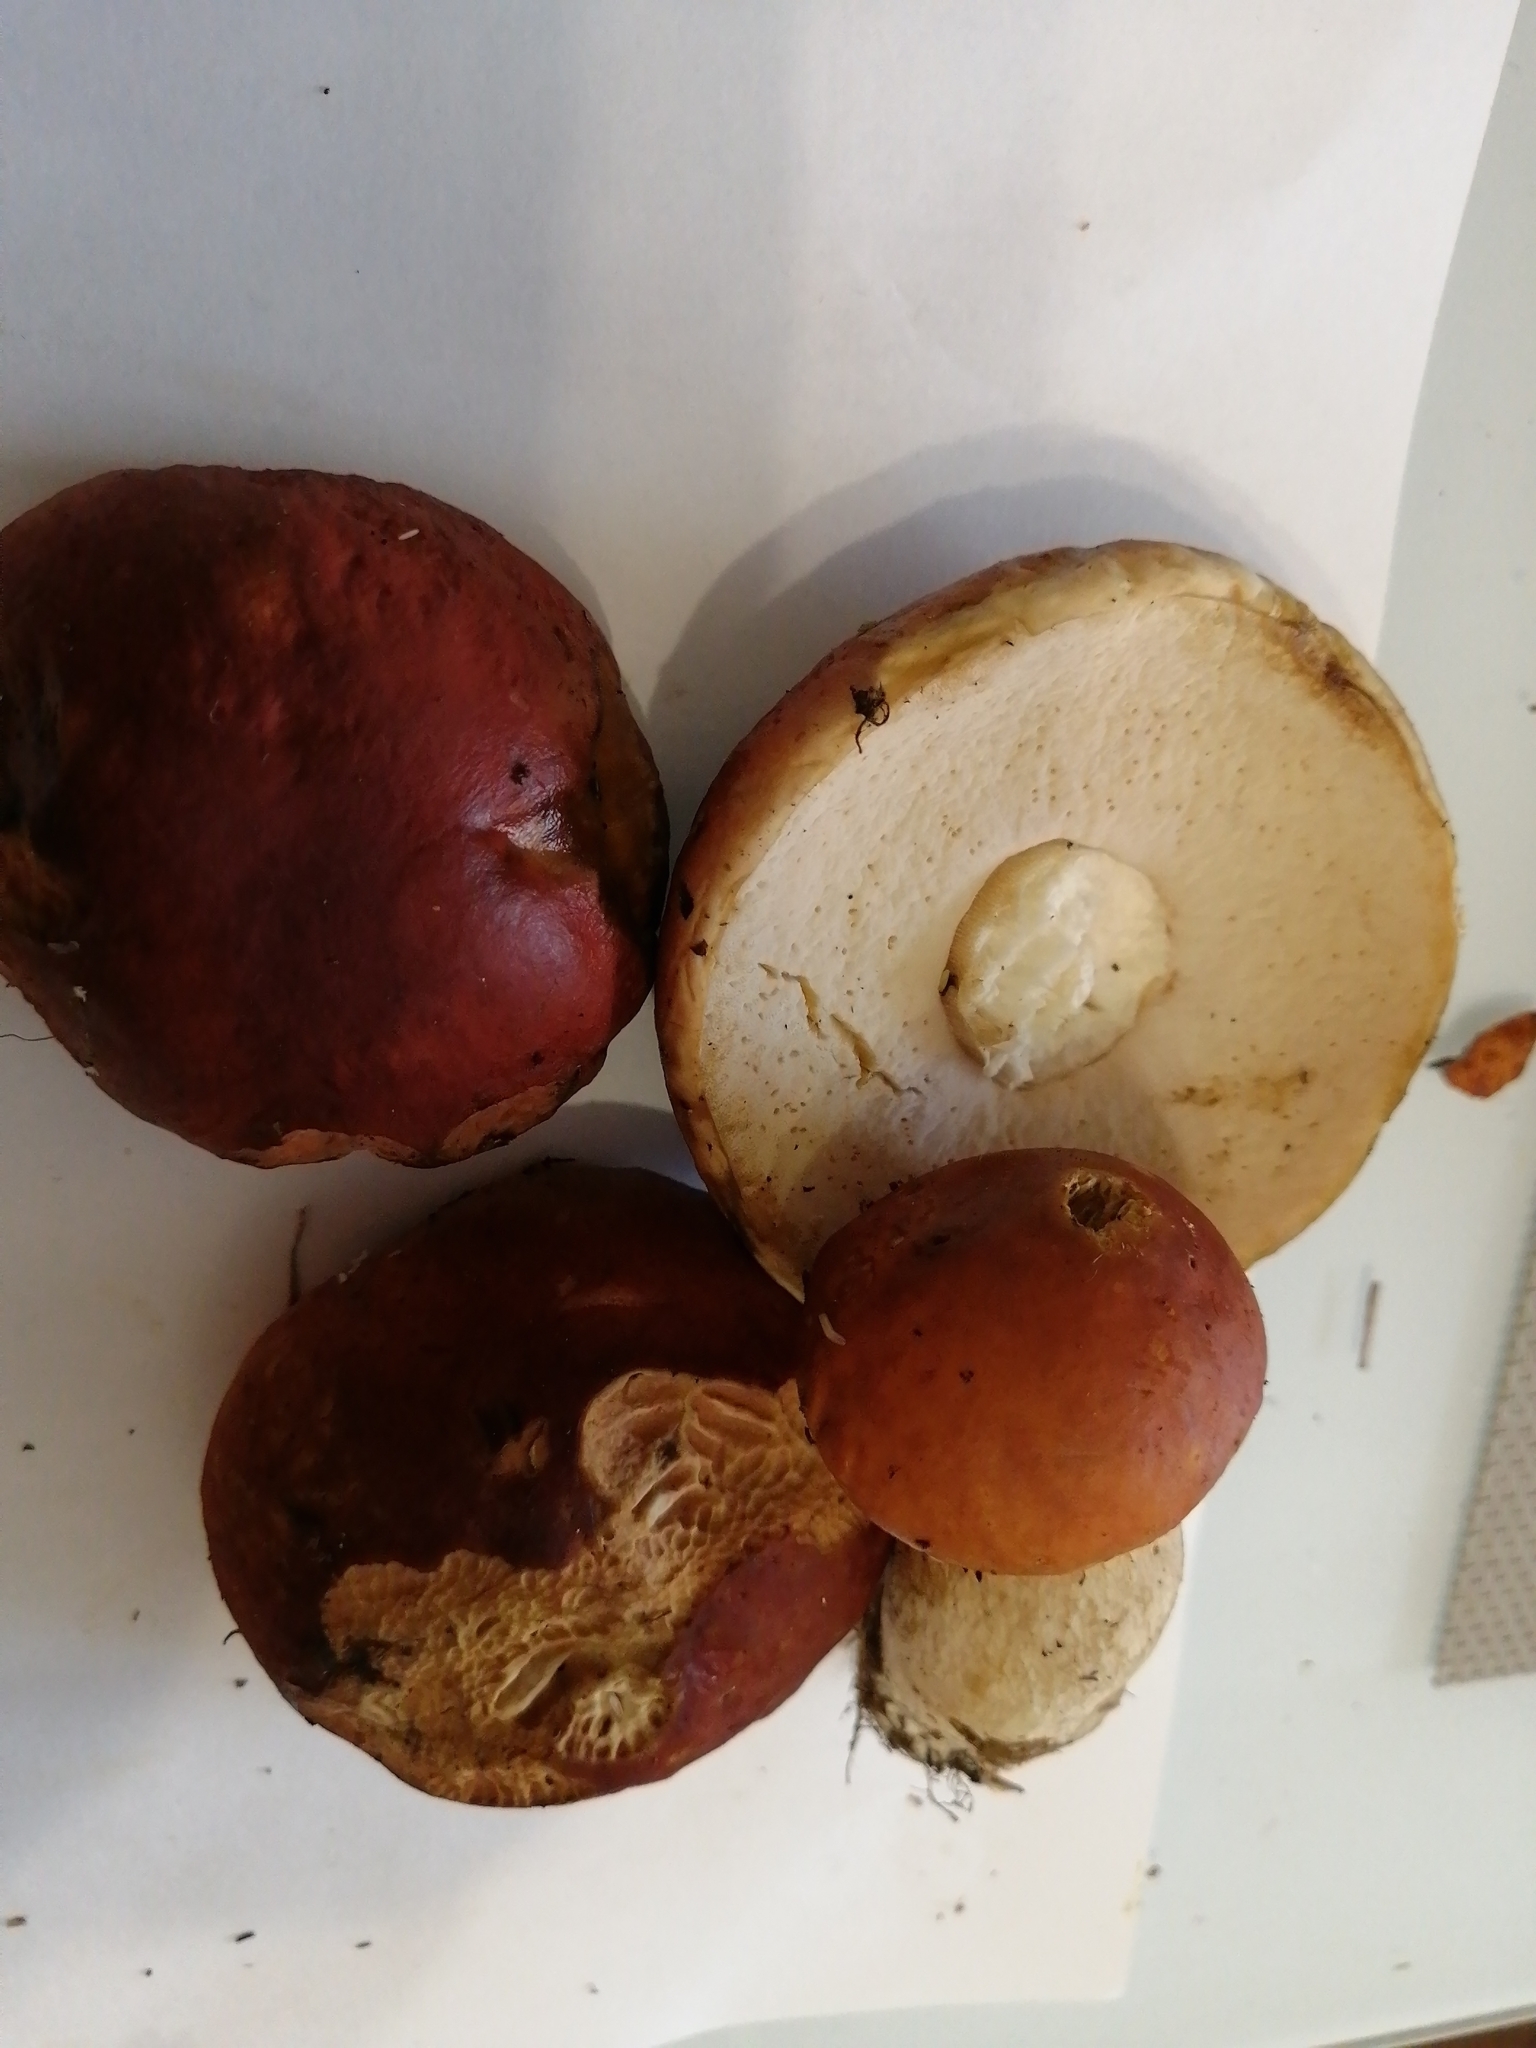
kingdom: Fungi
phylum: Basidiomycota
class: Agaricomycetes
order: Boletales
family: Boletaceae
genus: Boletus
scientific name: Boletus edulis
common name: Cep
